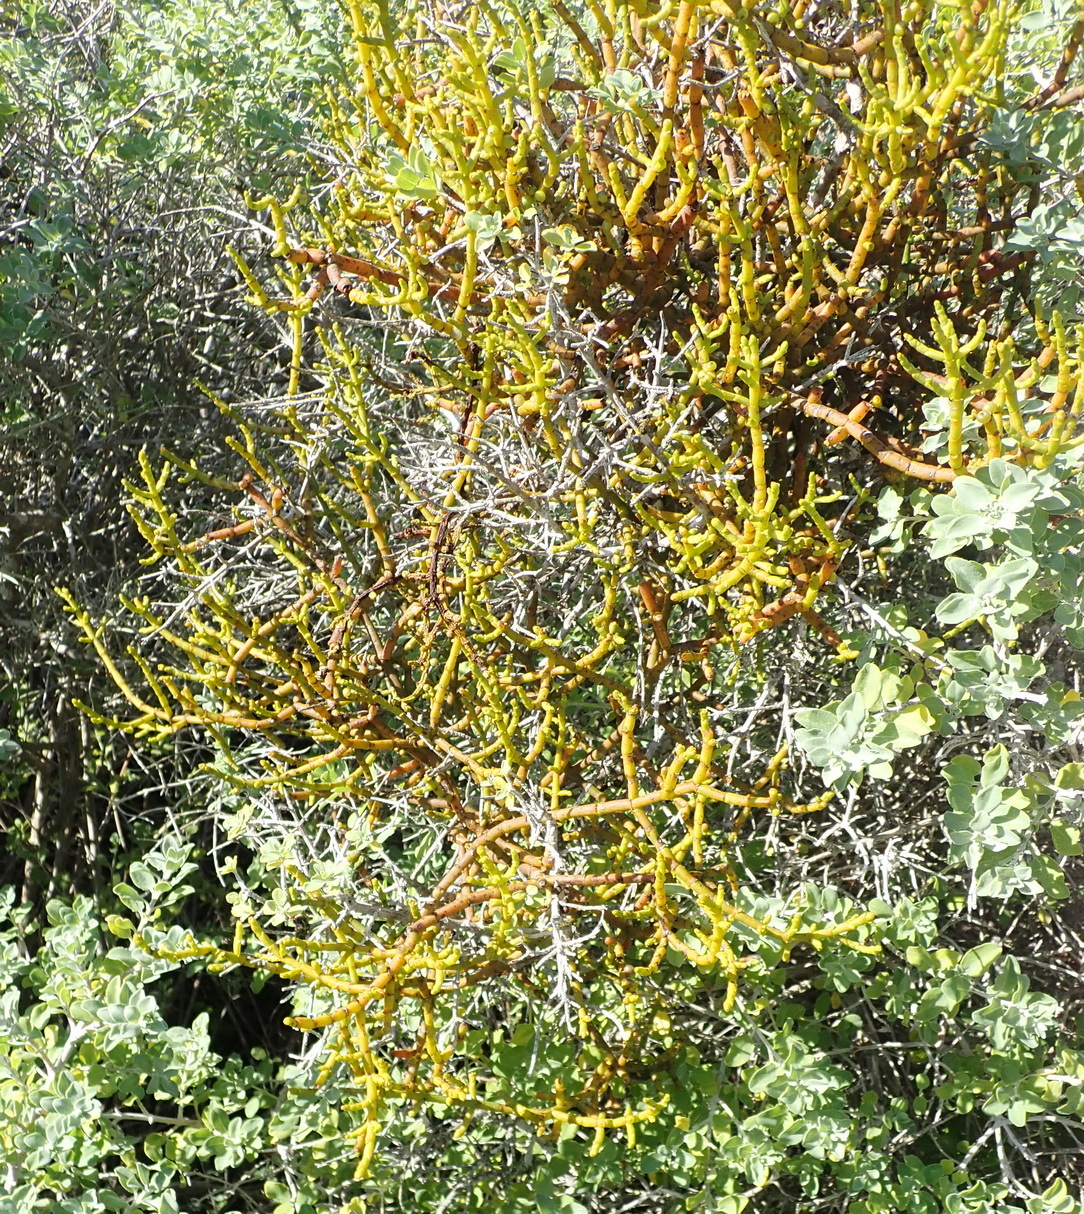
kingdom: Plantae
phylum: Tracheophyta
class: Magnoliopsida
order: Santalales
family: Viscaceae
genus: Viscum
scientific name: Viscum capense
